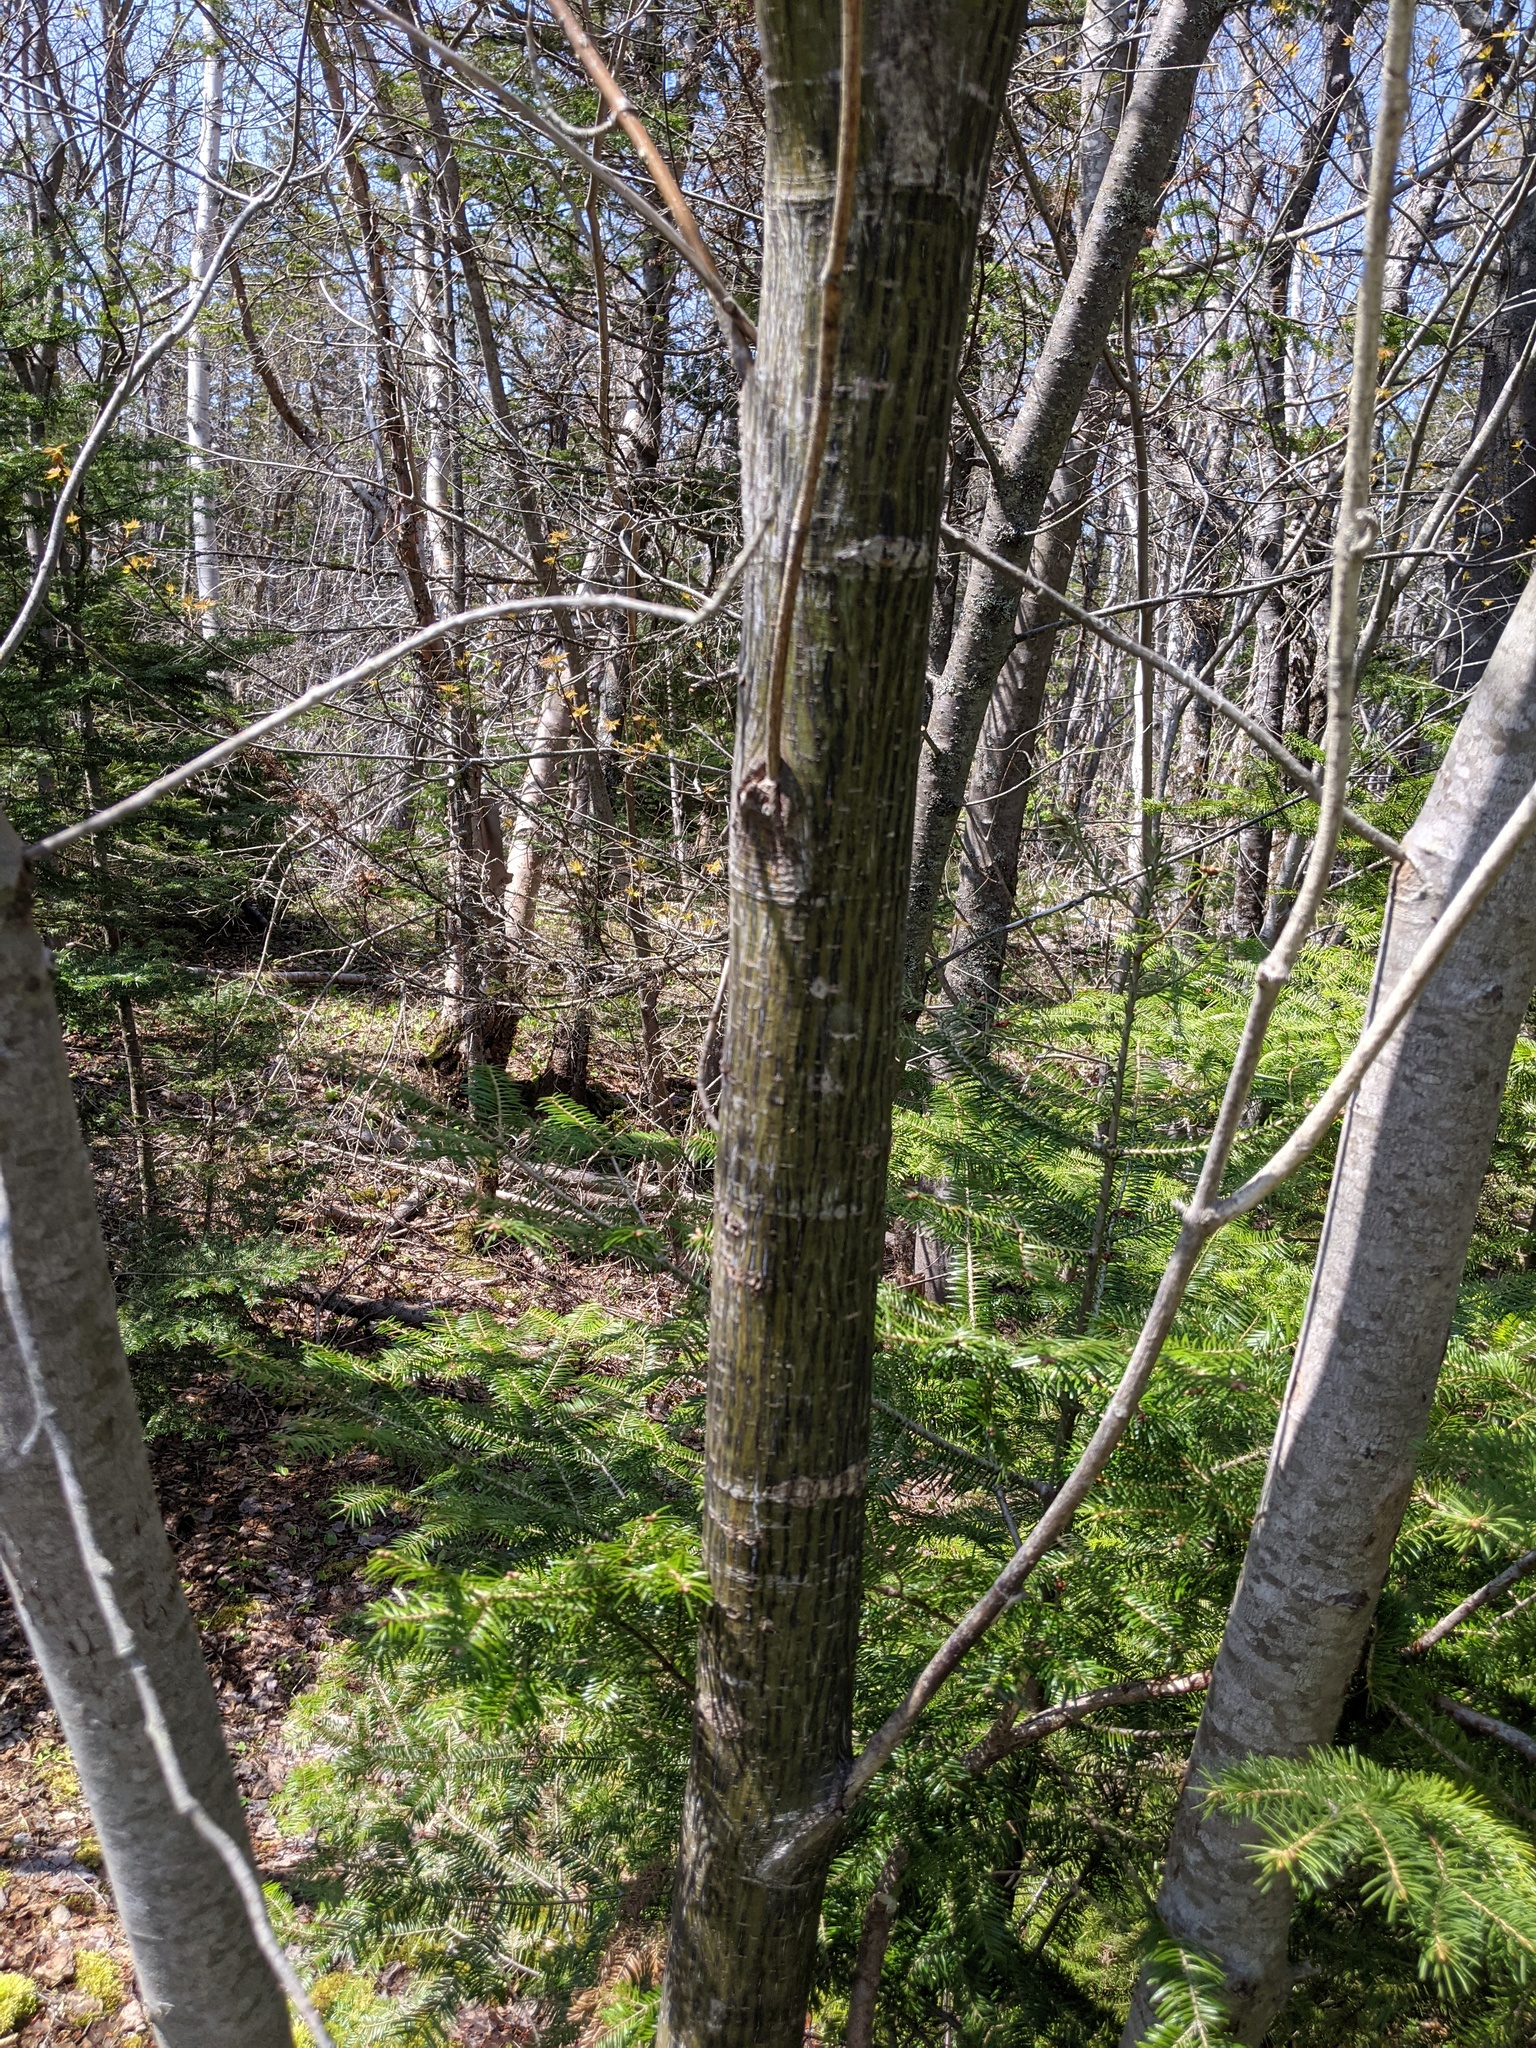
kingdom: Plantae
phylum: Tracheophyta
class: Magnoliopsida
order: Sapindales
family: Sapindaceae
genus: Acer
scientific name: Acer pensylvanicum
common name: Moosewood
